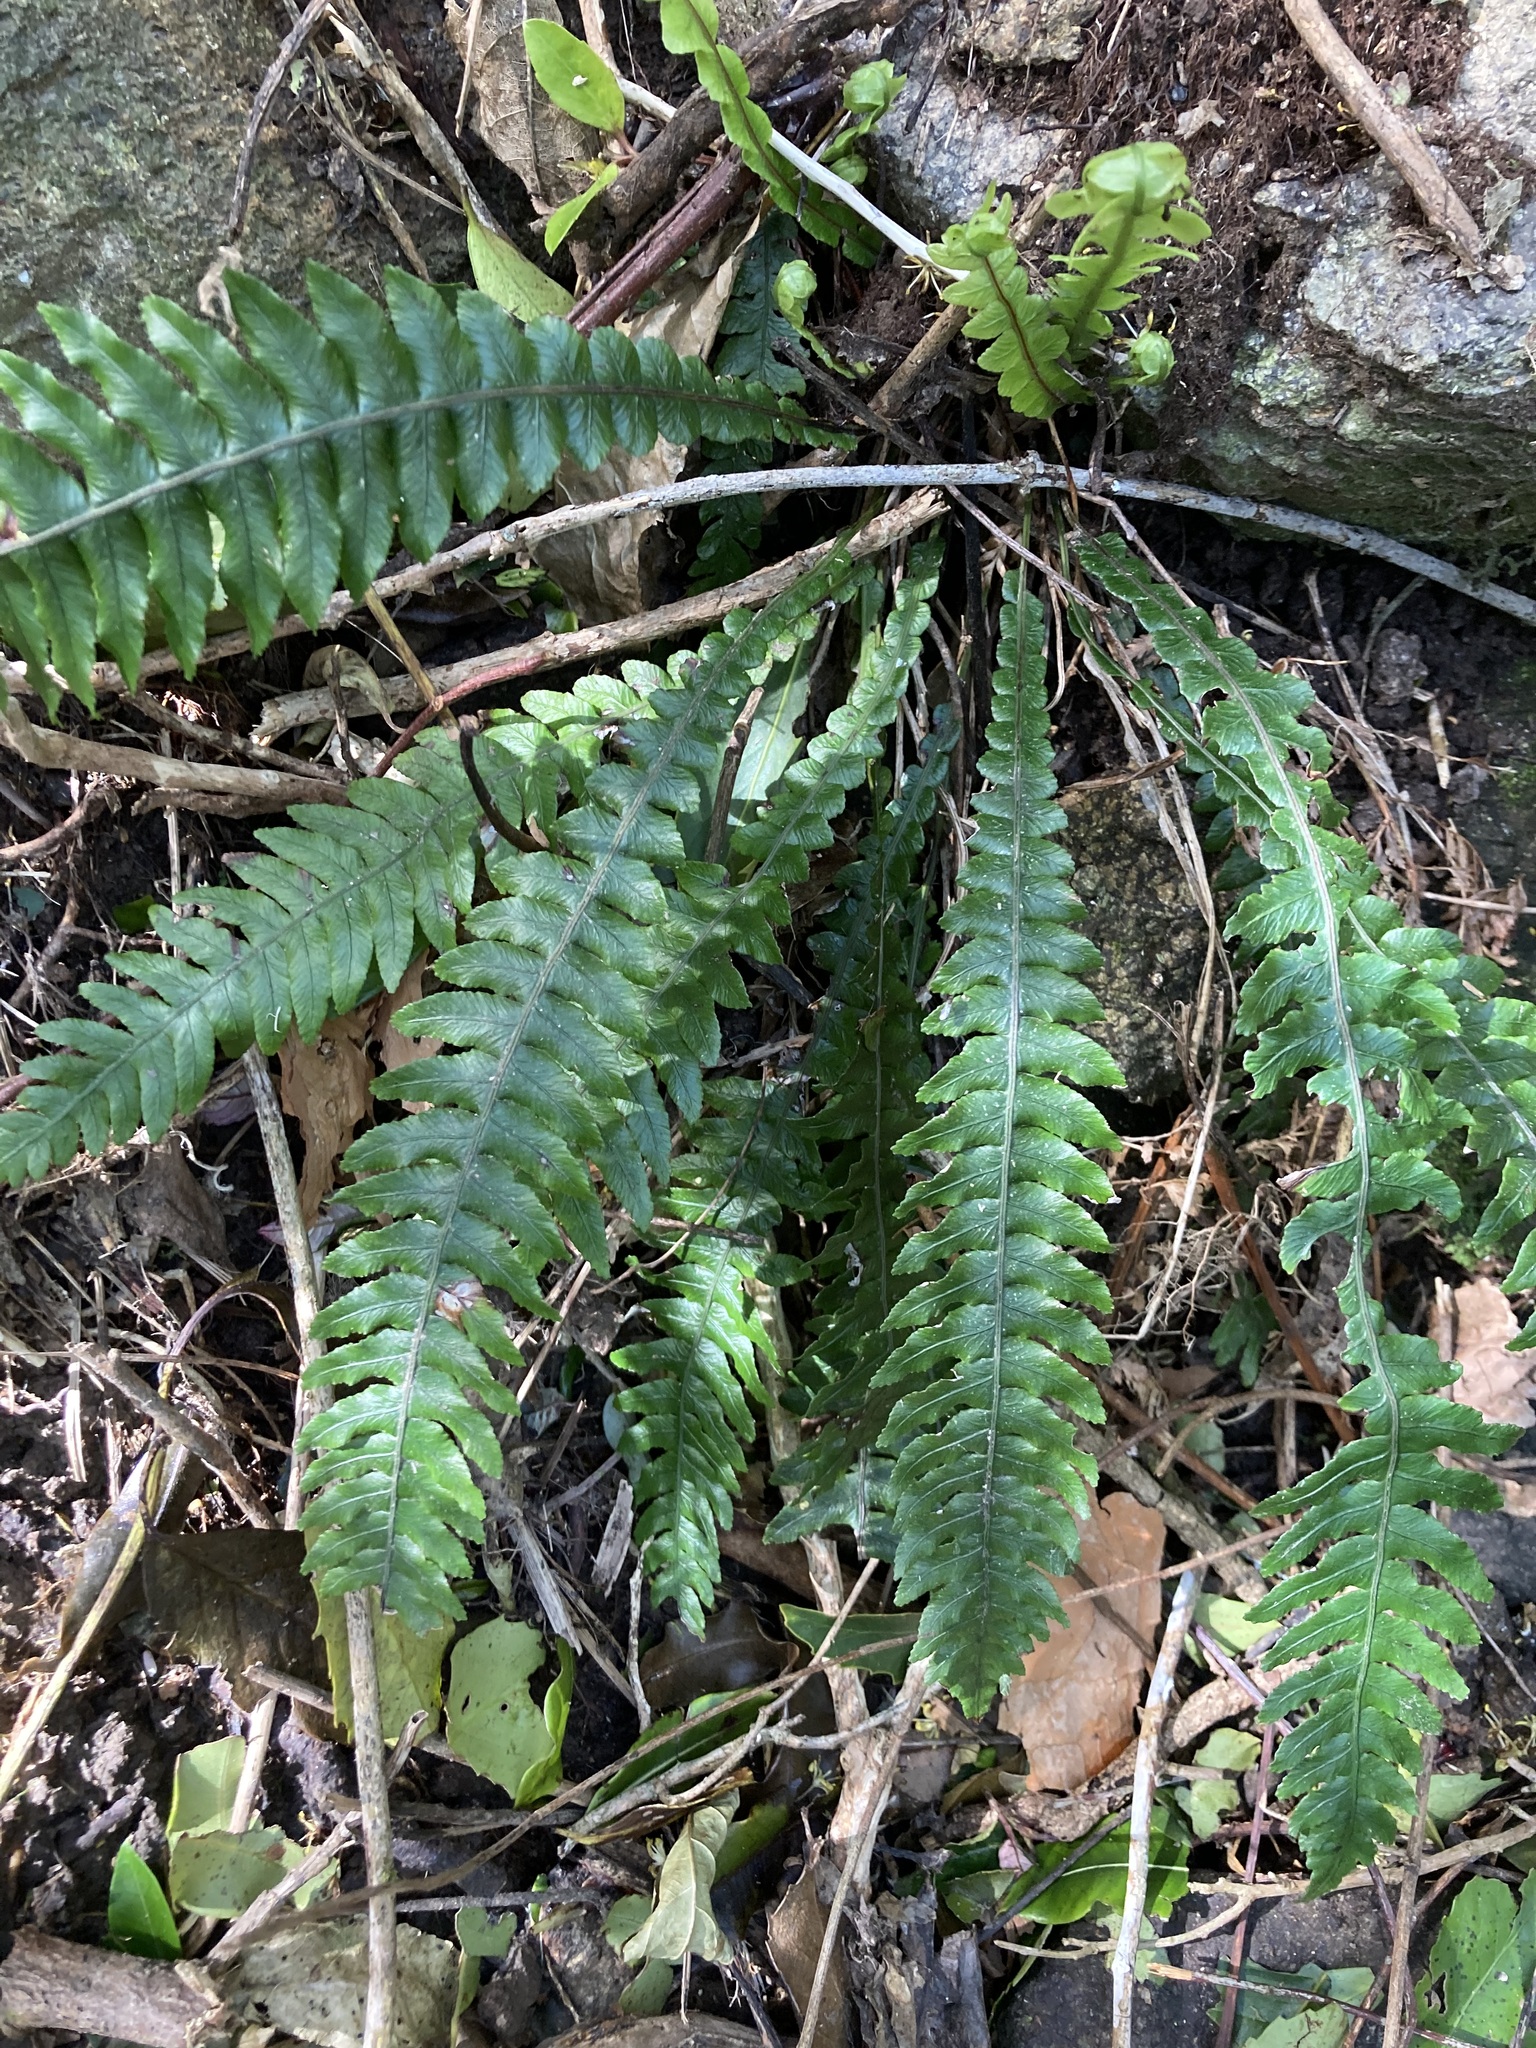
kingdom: Plantae
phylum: Tracheophyta
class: Polypodiopsida
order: Polypodiales
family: Blechnaceae
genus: Austroblechnum
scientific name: Austroblechnum lanceolatum
